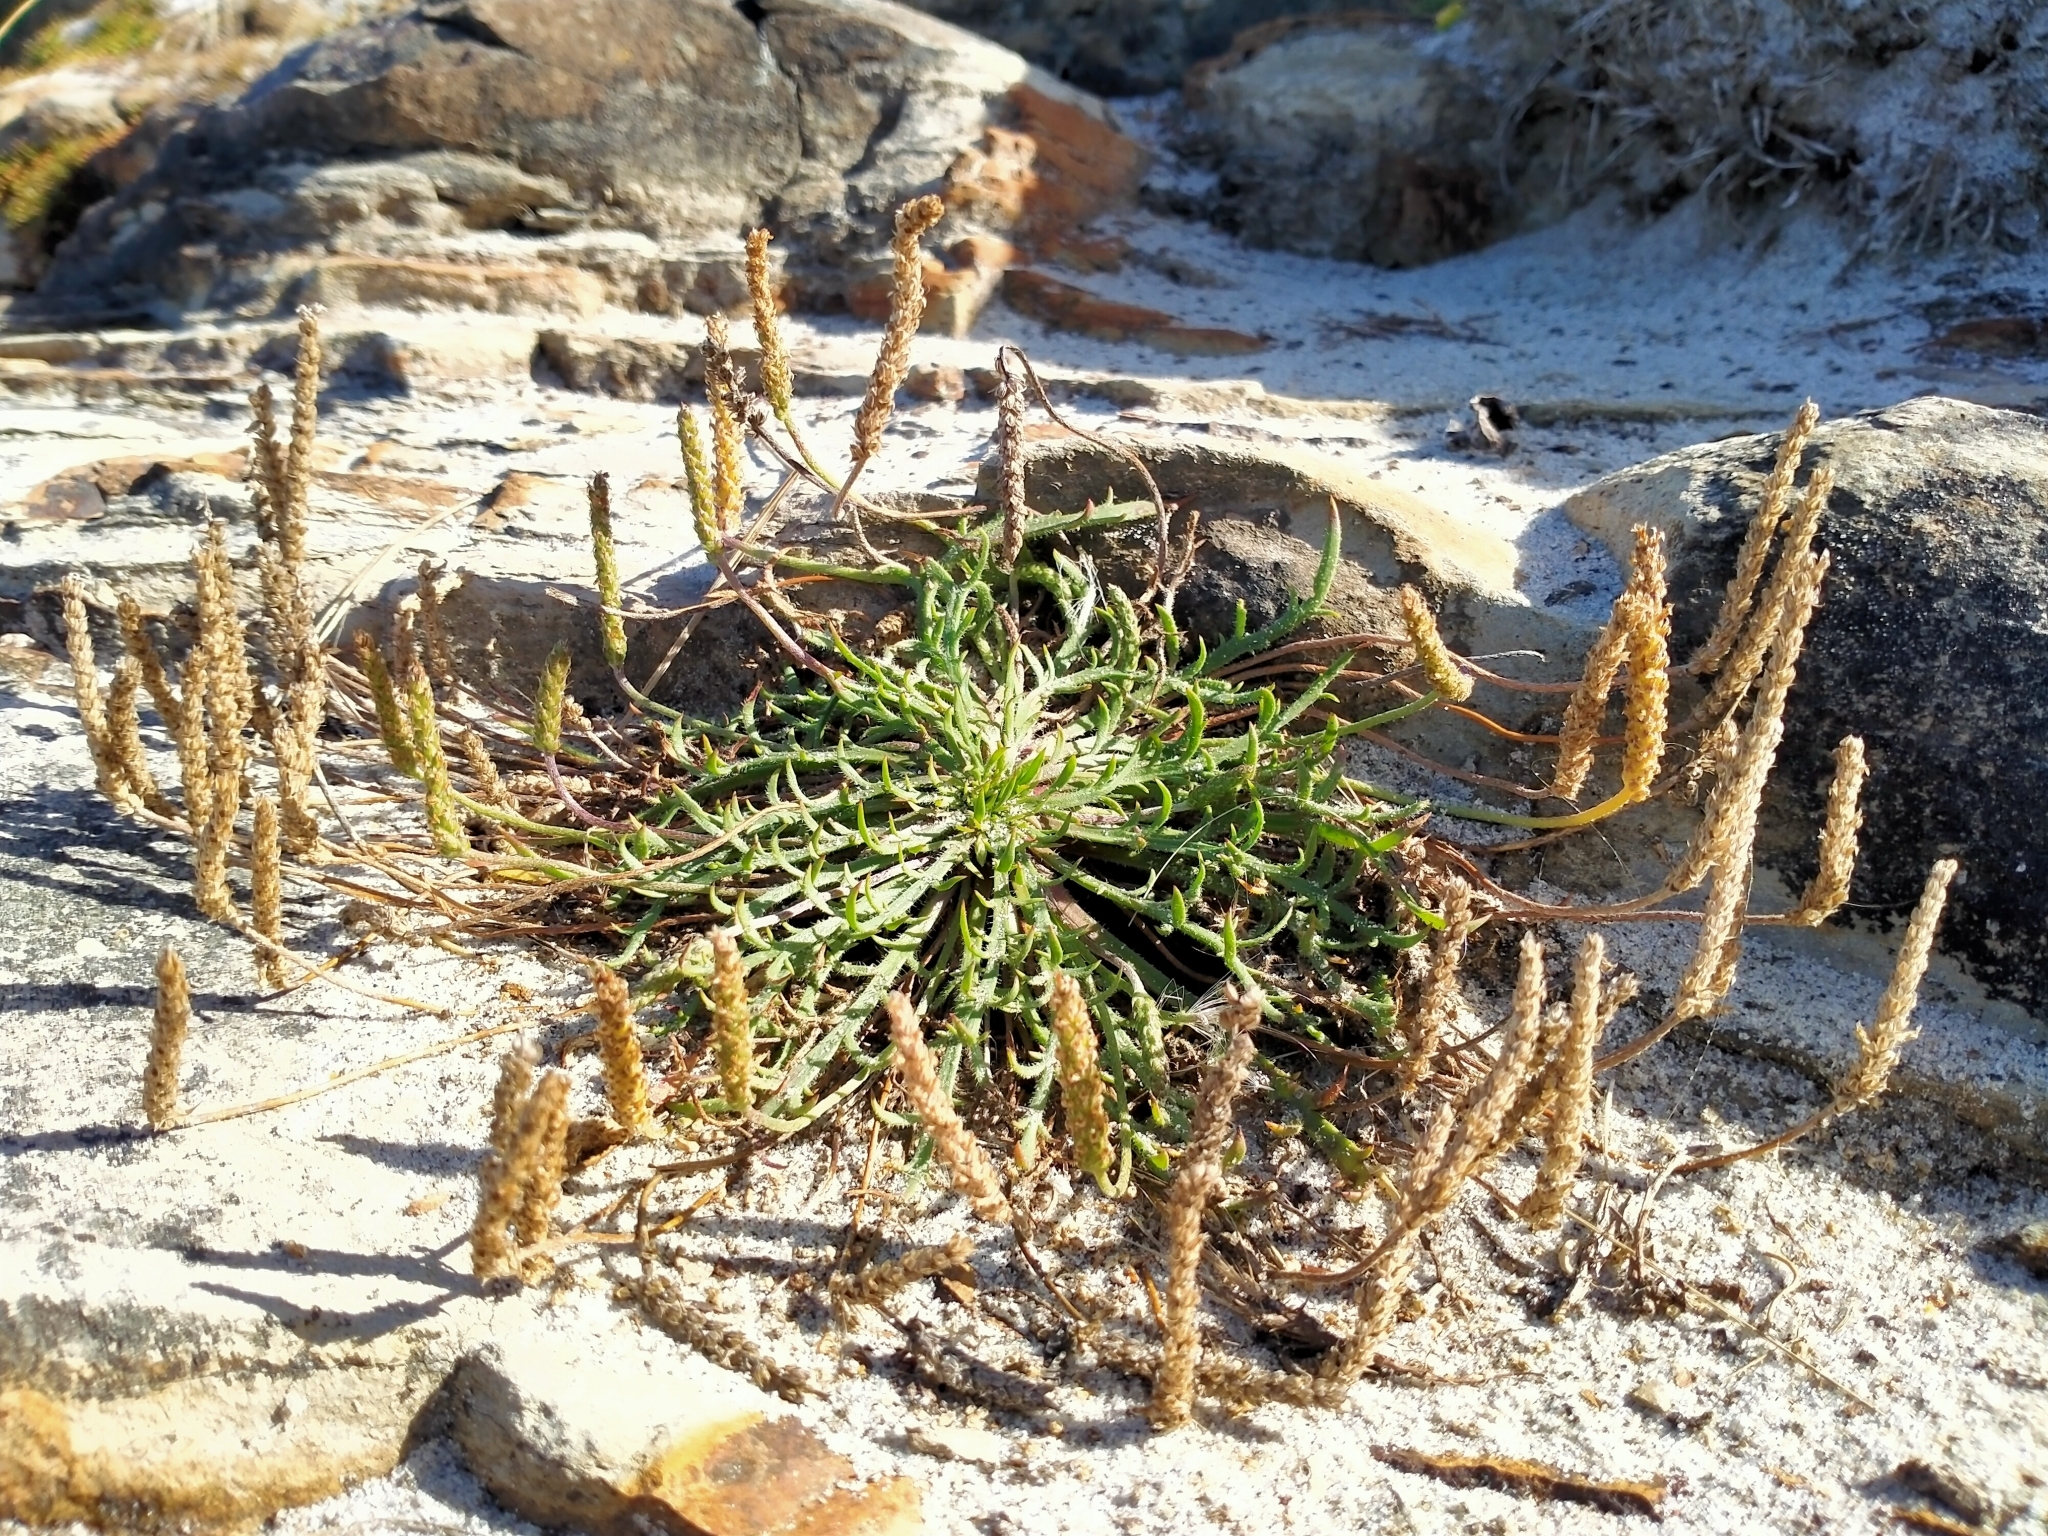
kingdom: Plantae
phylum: Tracheophyta
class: Magnoliopsida
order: Lamiales
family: Plantaginaceae
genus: Plantago
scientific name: Plantago coronopus
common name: Buck's-horn plantain
